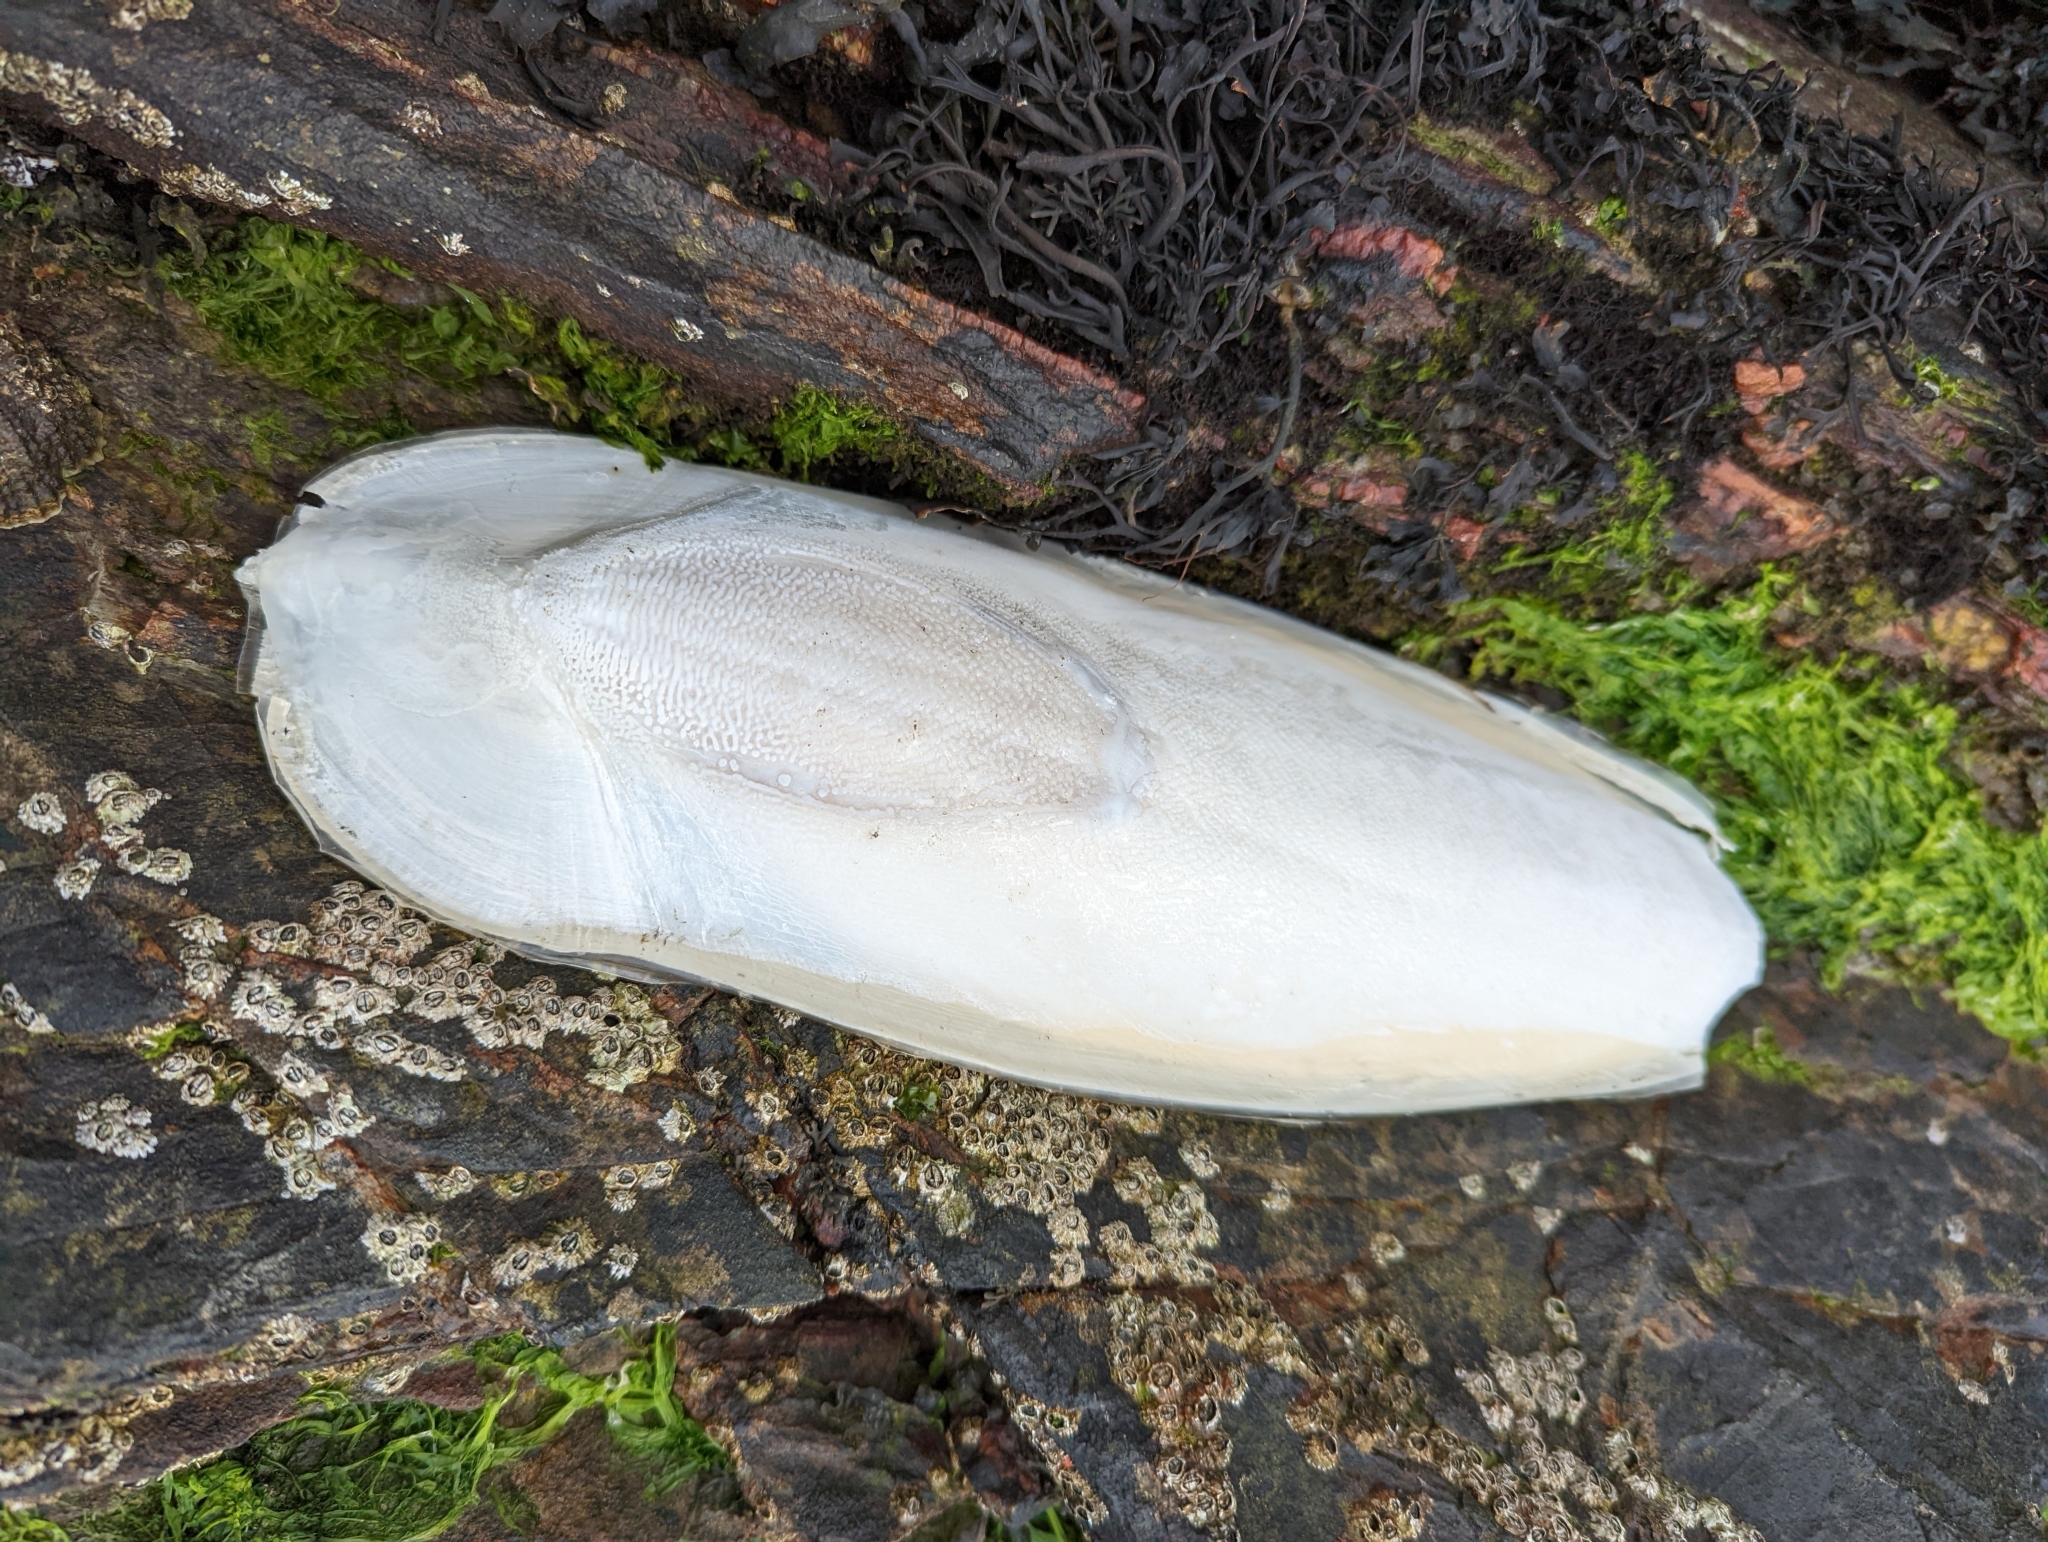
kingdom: Animalia
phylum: Mollusca
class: Cephalopoda
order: Sepiida
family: Sepiidae
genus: Sepia
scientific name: Sepia officinalis
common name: Common cuttlefish
